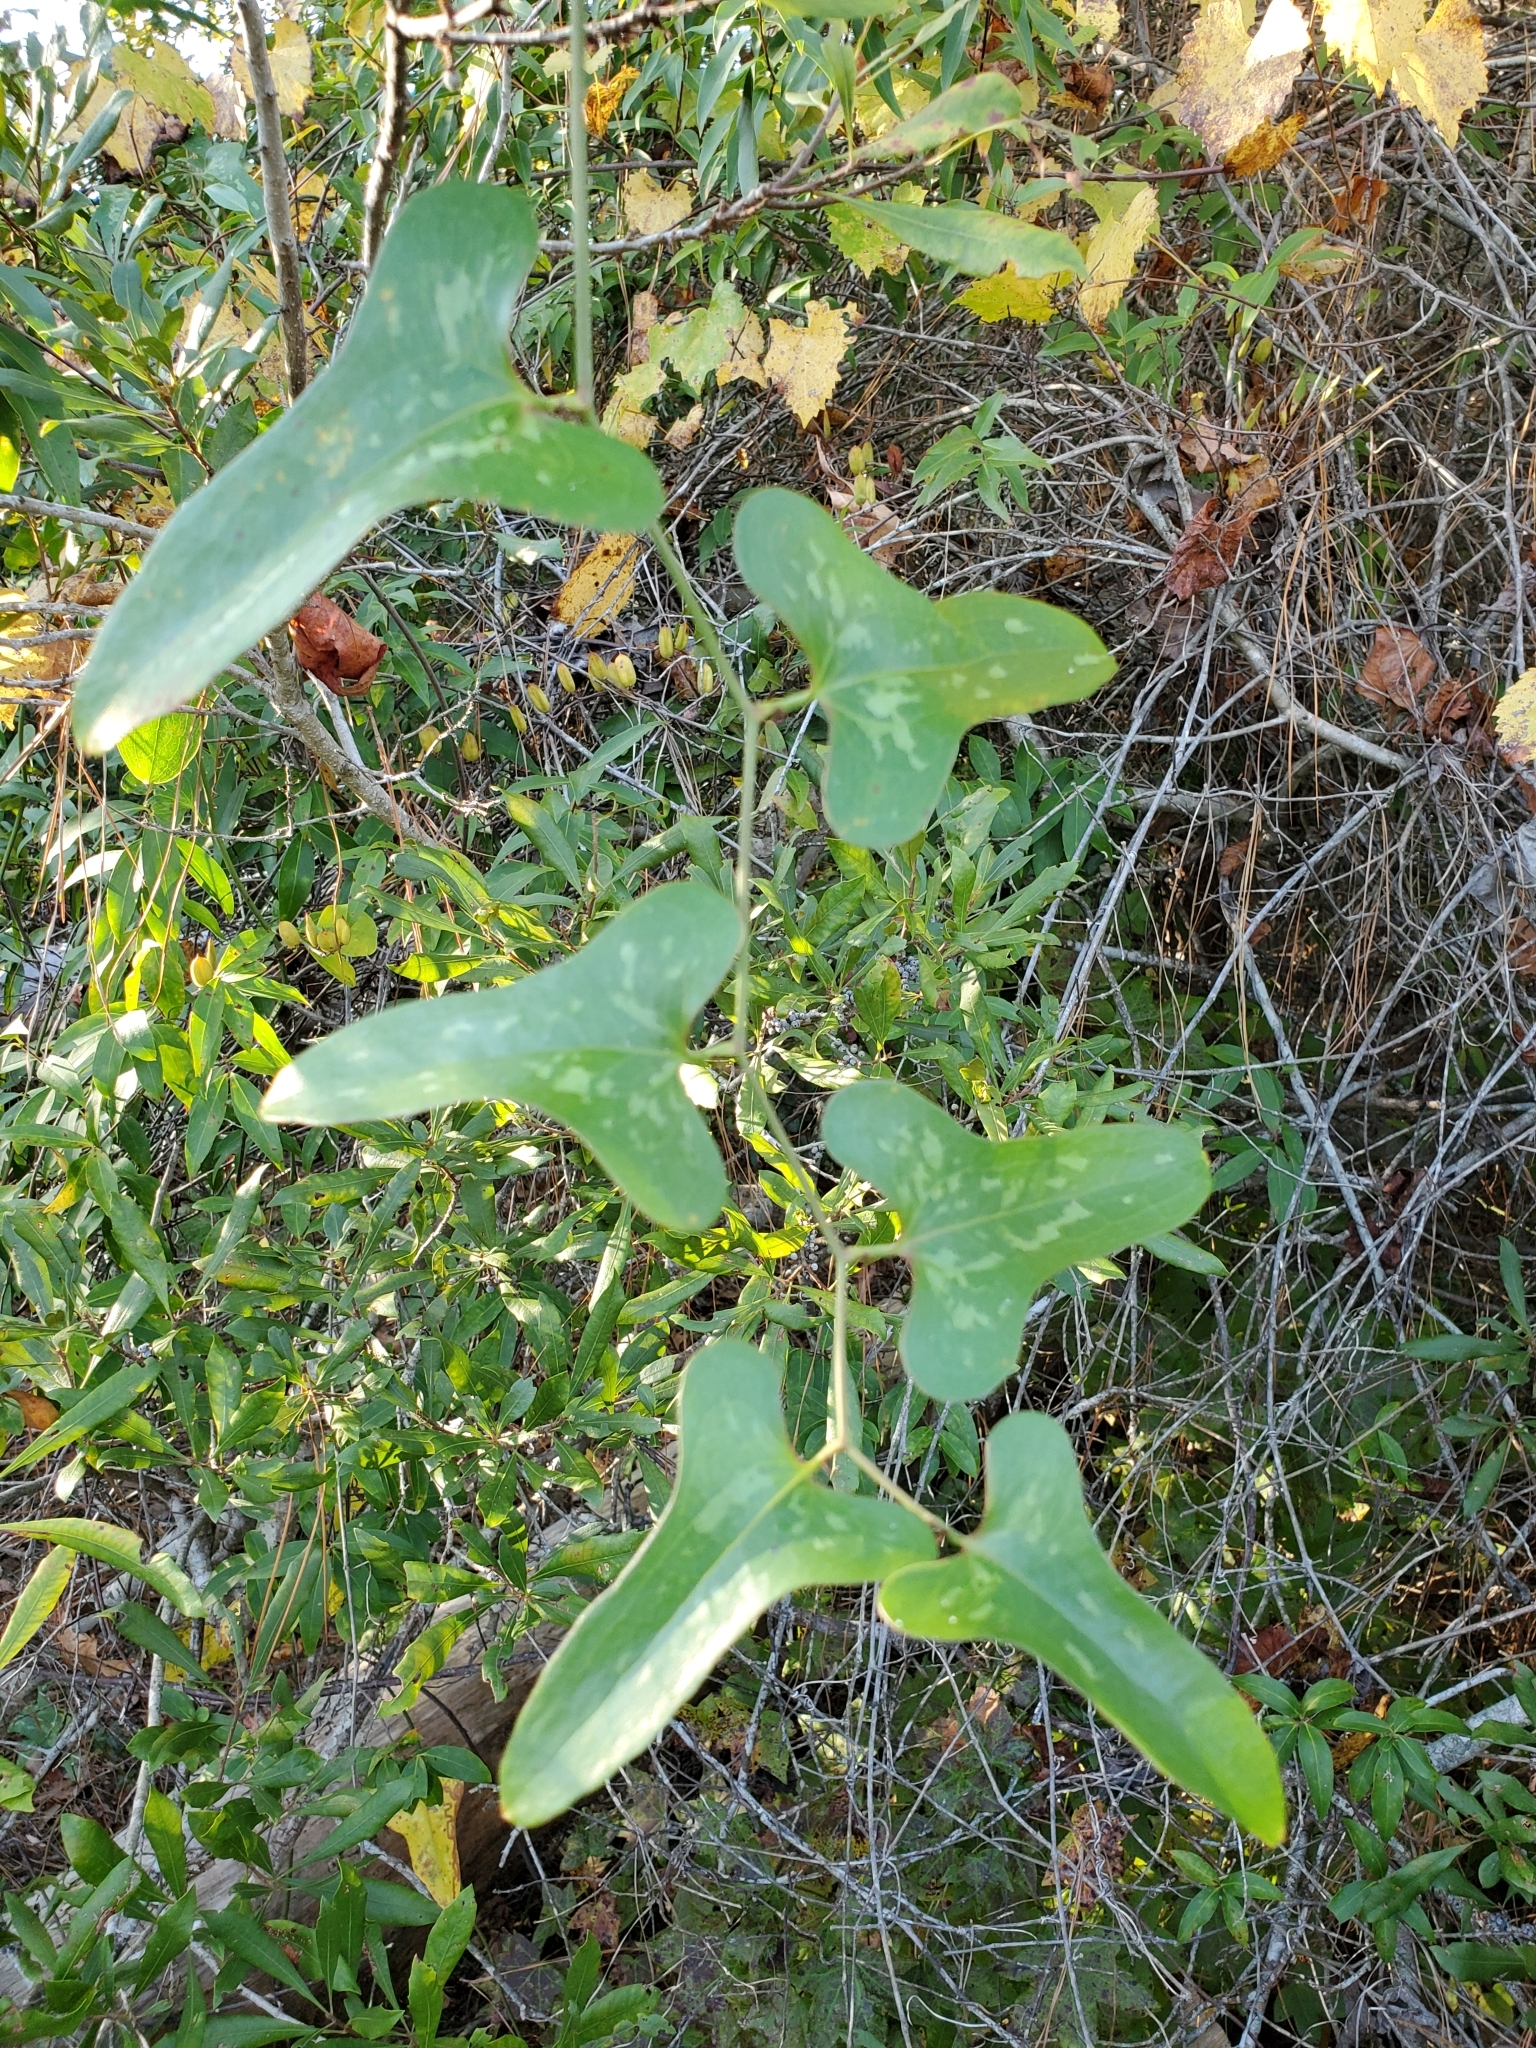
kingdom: Plantae
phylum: Tracheophyta
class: Liliopsida
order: Liliales
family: Smilacaceae
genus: Smilax
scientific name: Smilax bona-nox
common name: Catbrier
